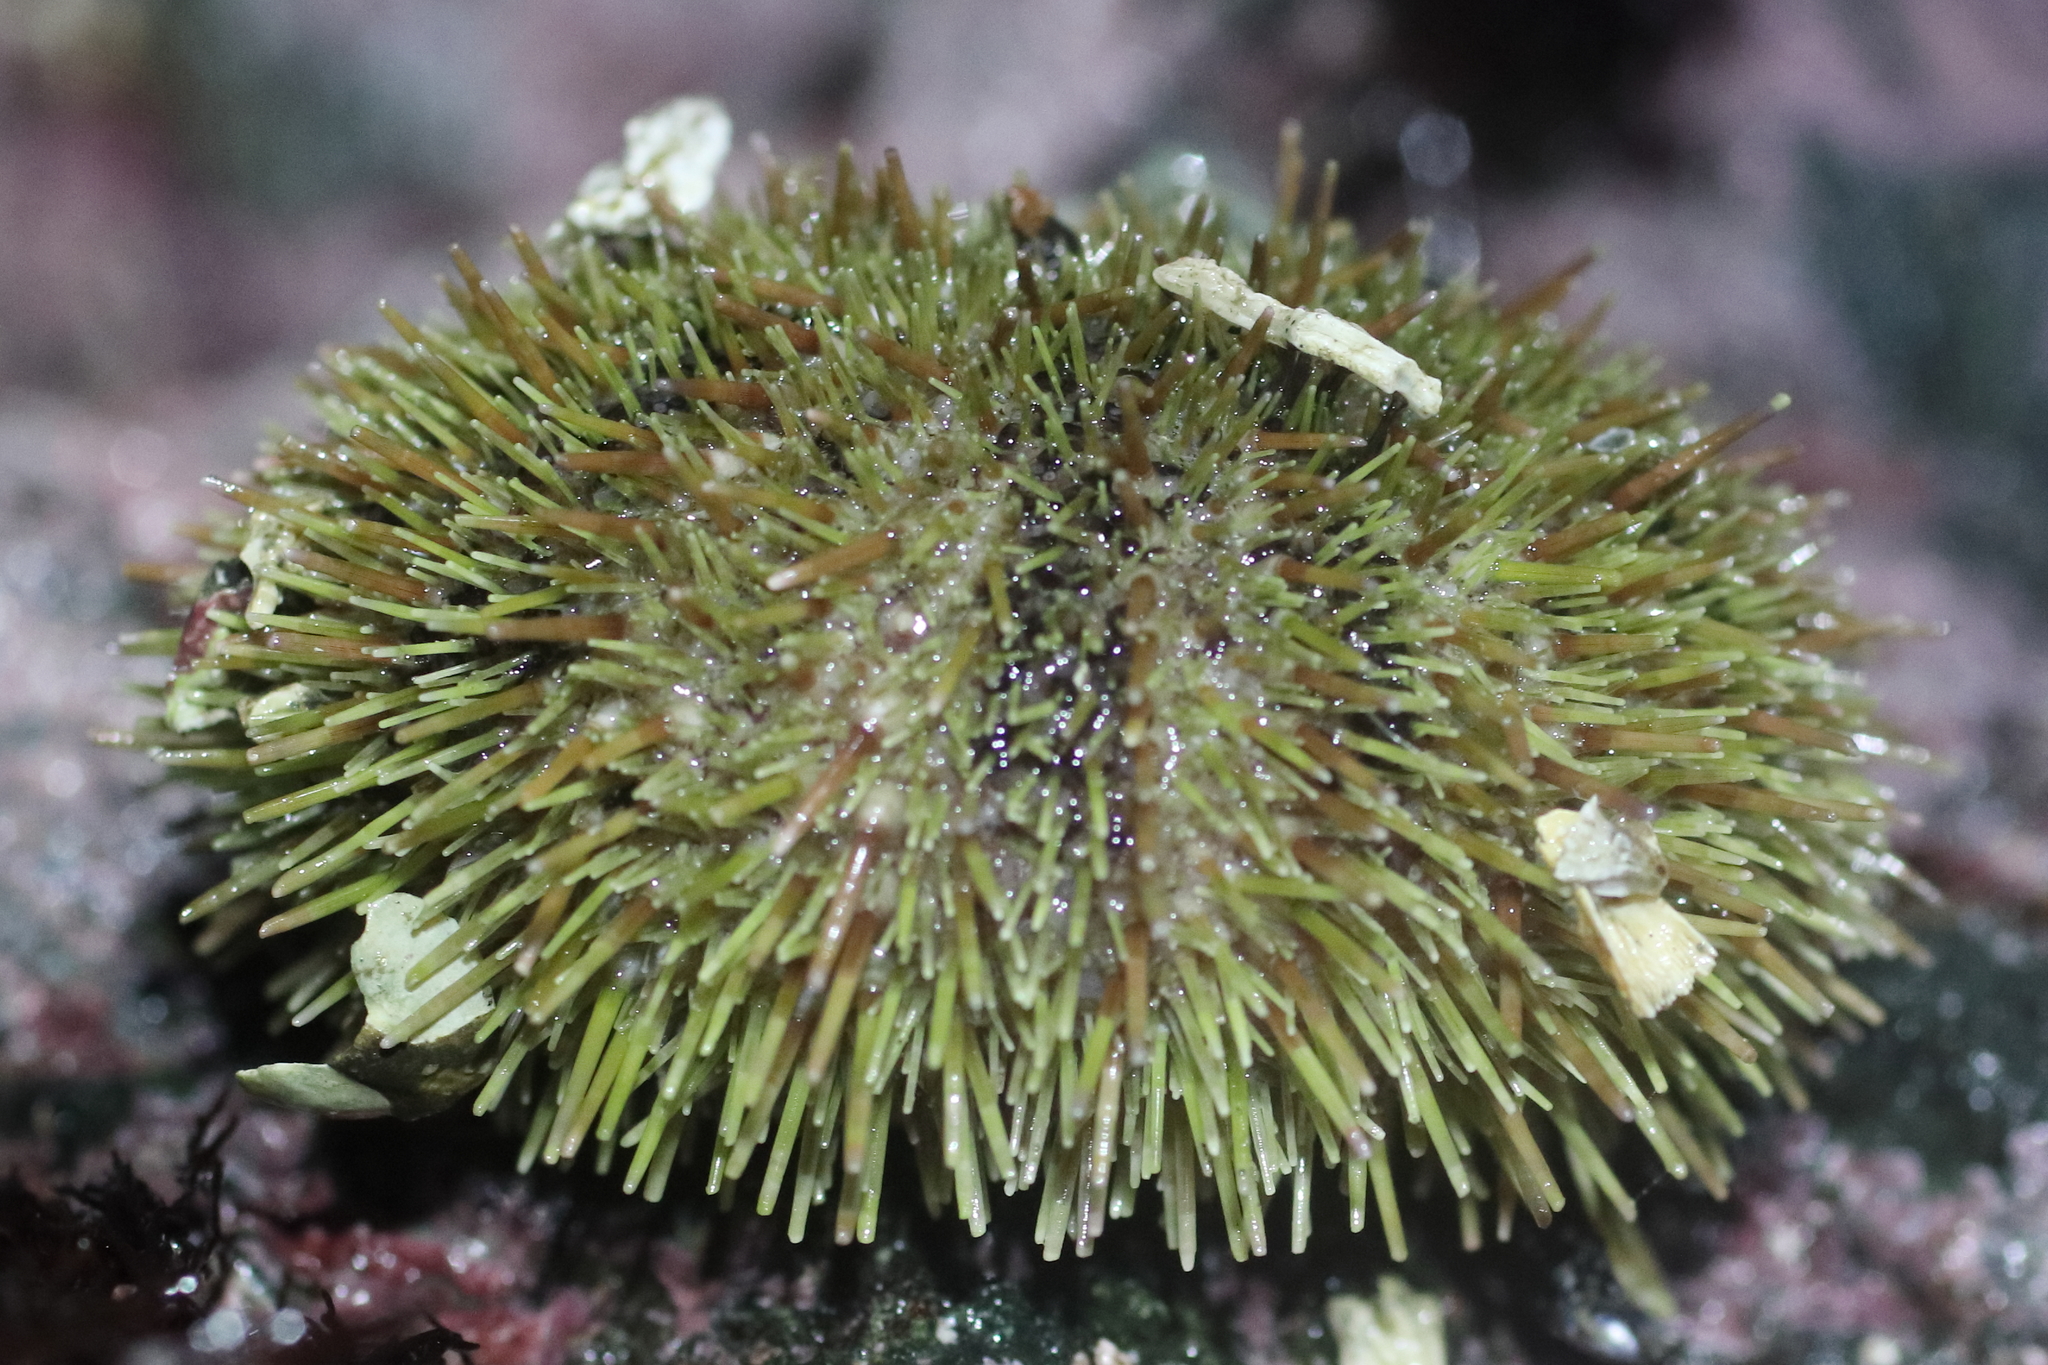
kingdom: Animalia
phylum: Echinodermata
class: Echinoidea
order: Camarodonta
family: Strongylocentrotidae
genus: Strongylocentrotus
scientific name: Strongylocentrotus droebachiensis
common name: Northern sea urchin
